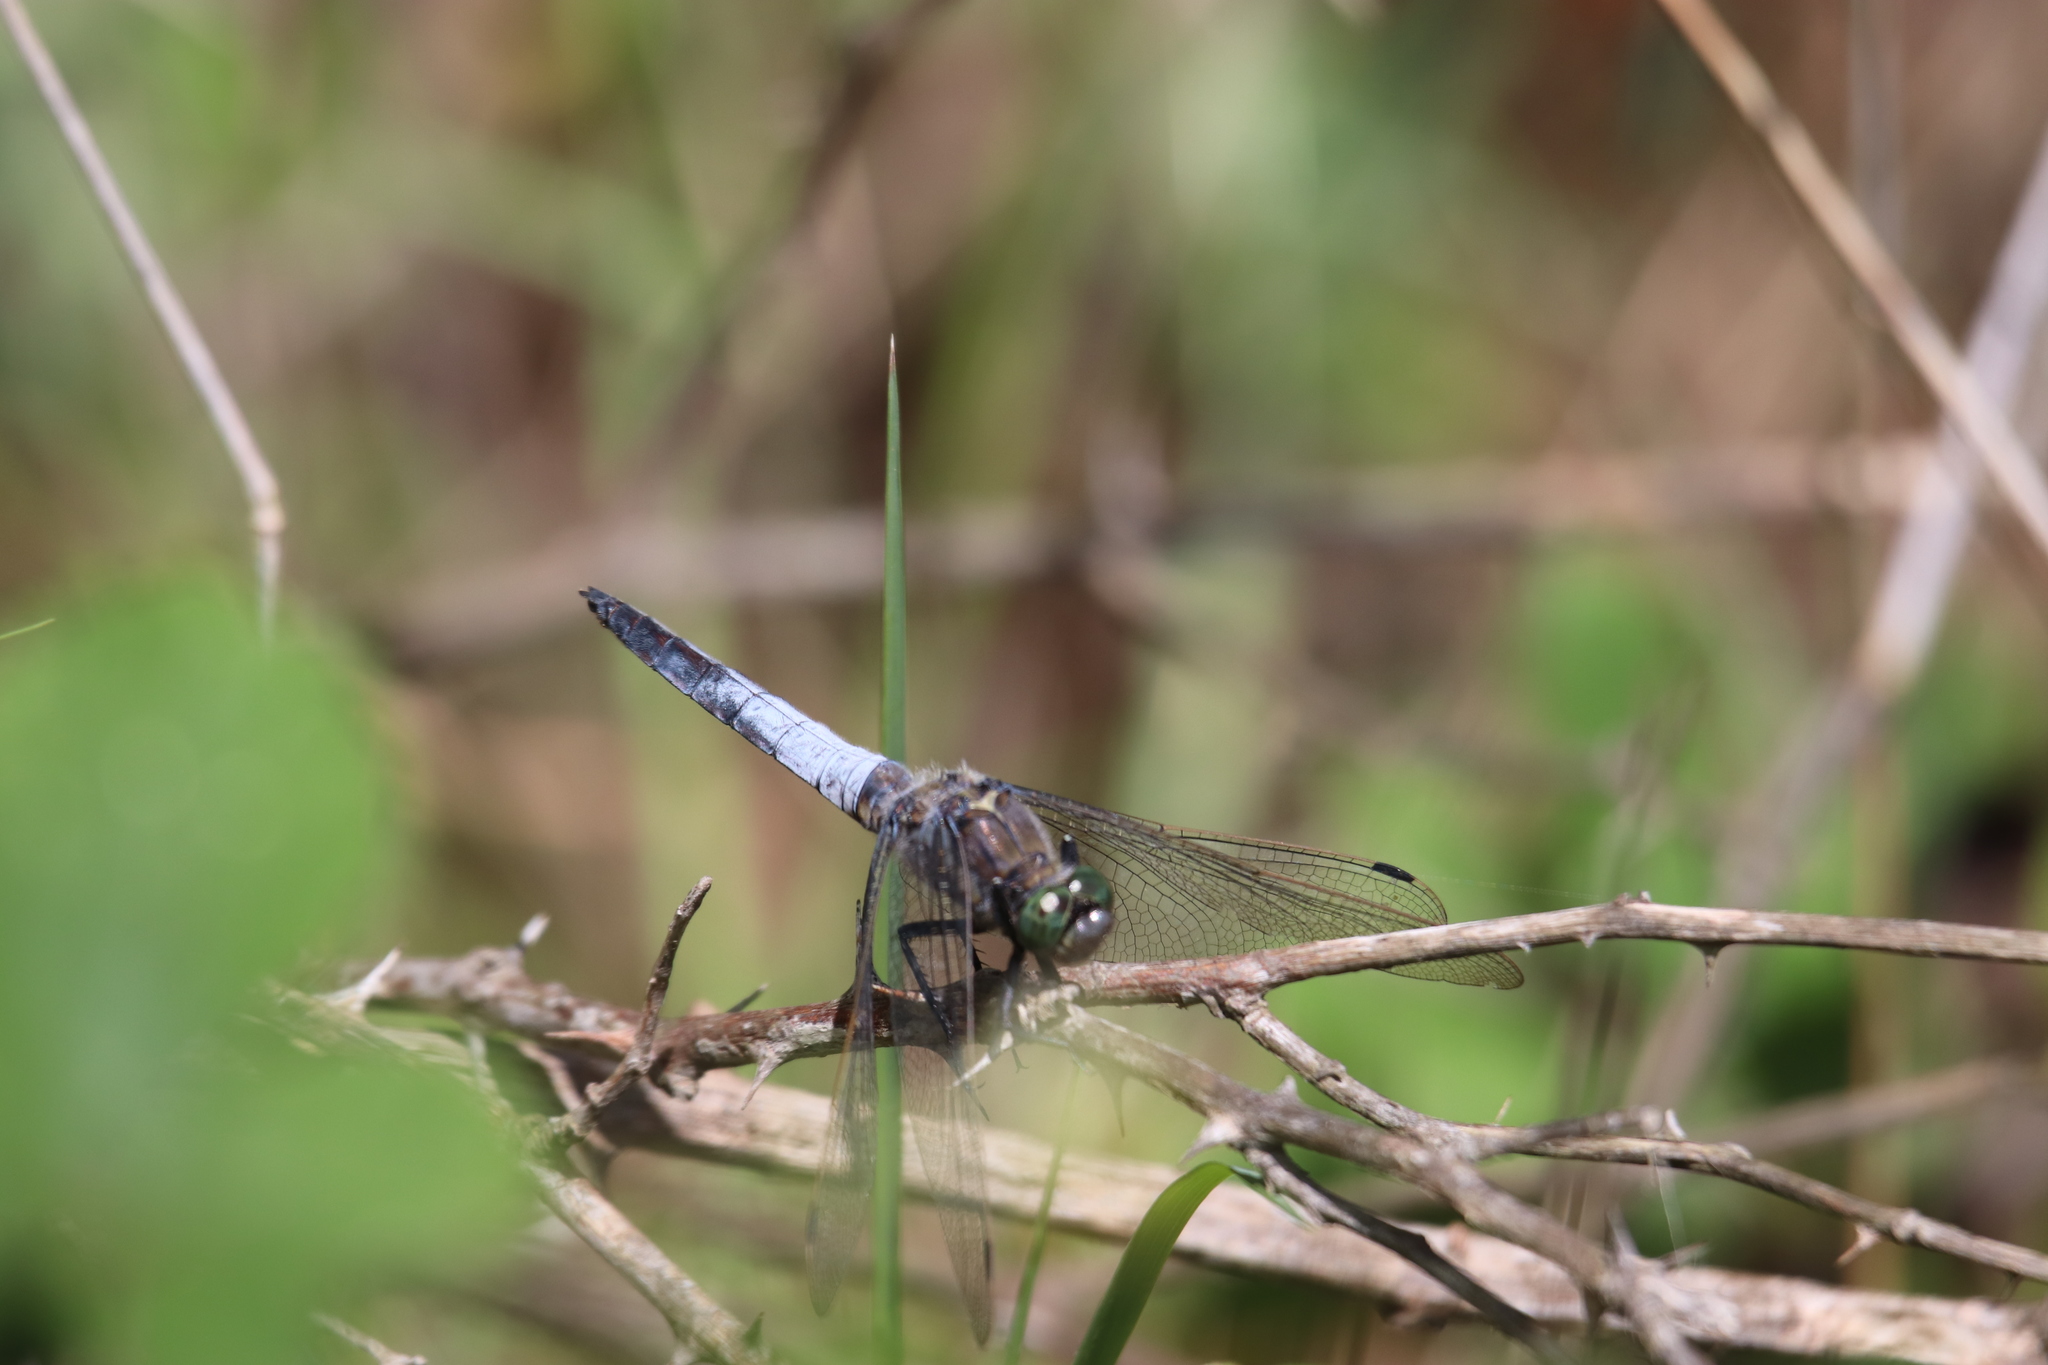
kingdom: Animalia
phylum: Arthropoda
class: Insecta
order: Odonata
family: Libellulidae
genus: Orthetrum
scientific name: Orthetrum cancellatum
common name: Black-tailed skimmer
